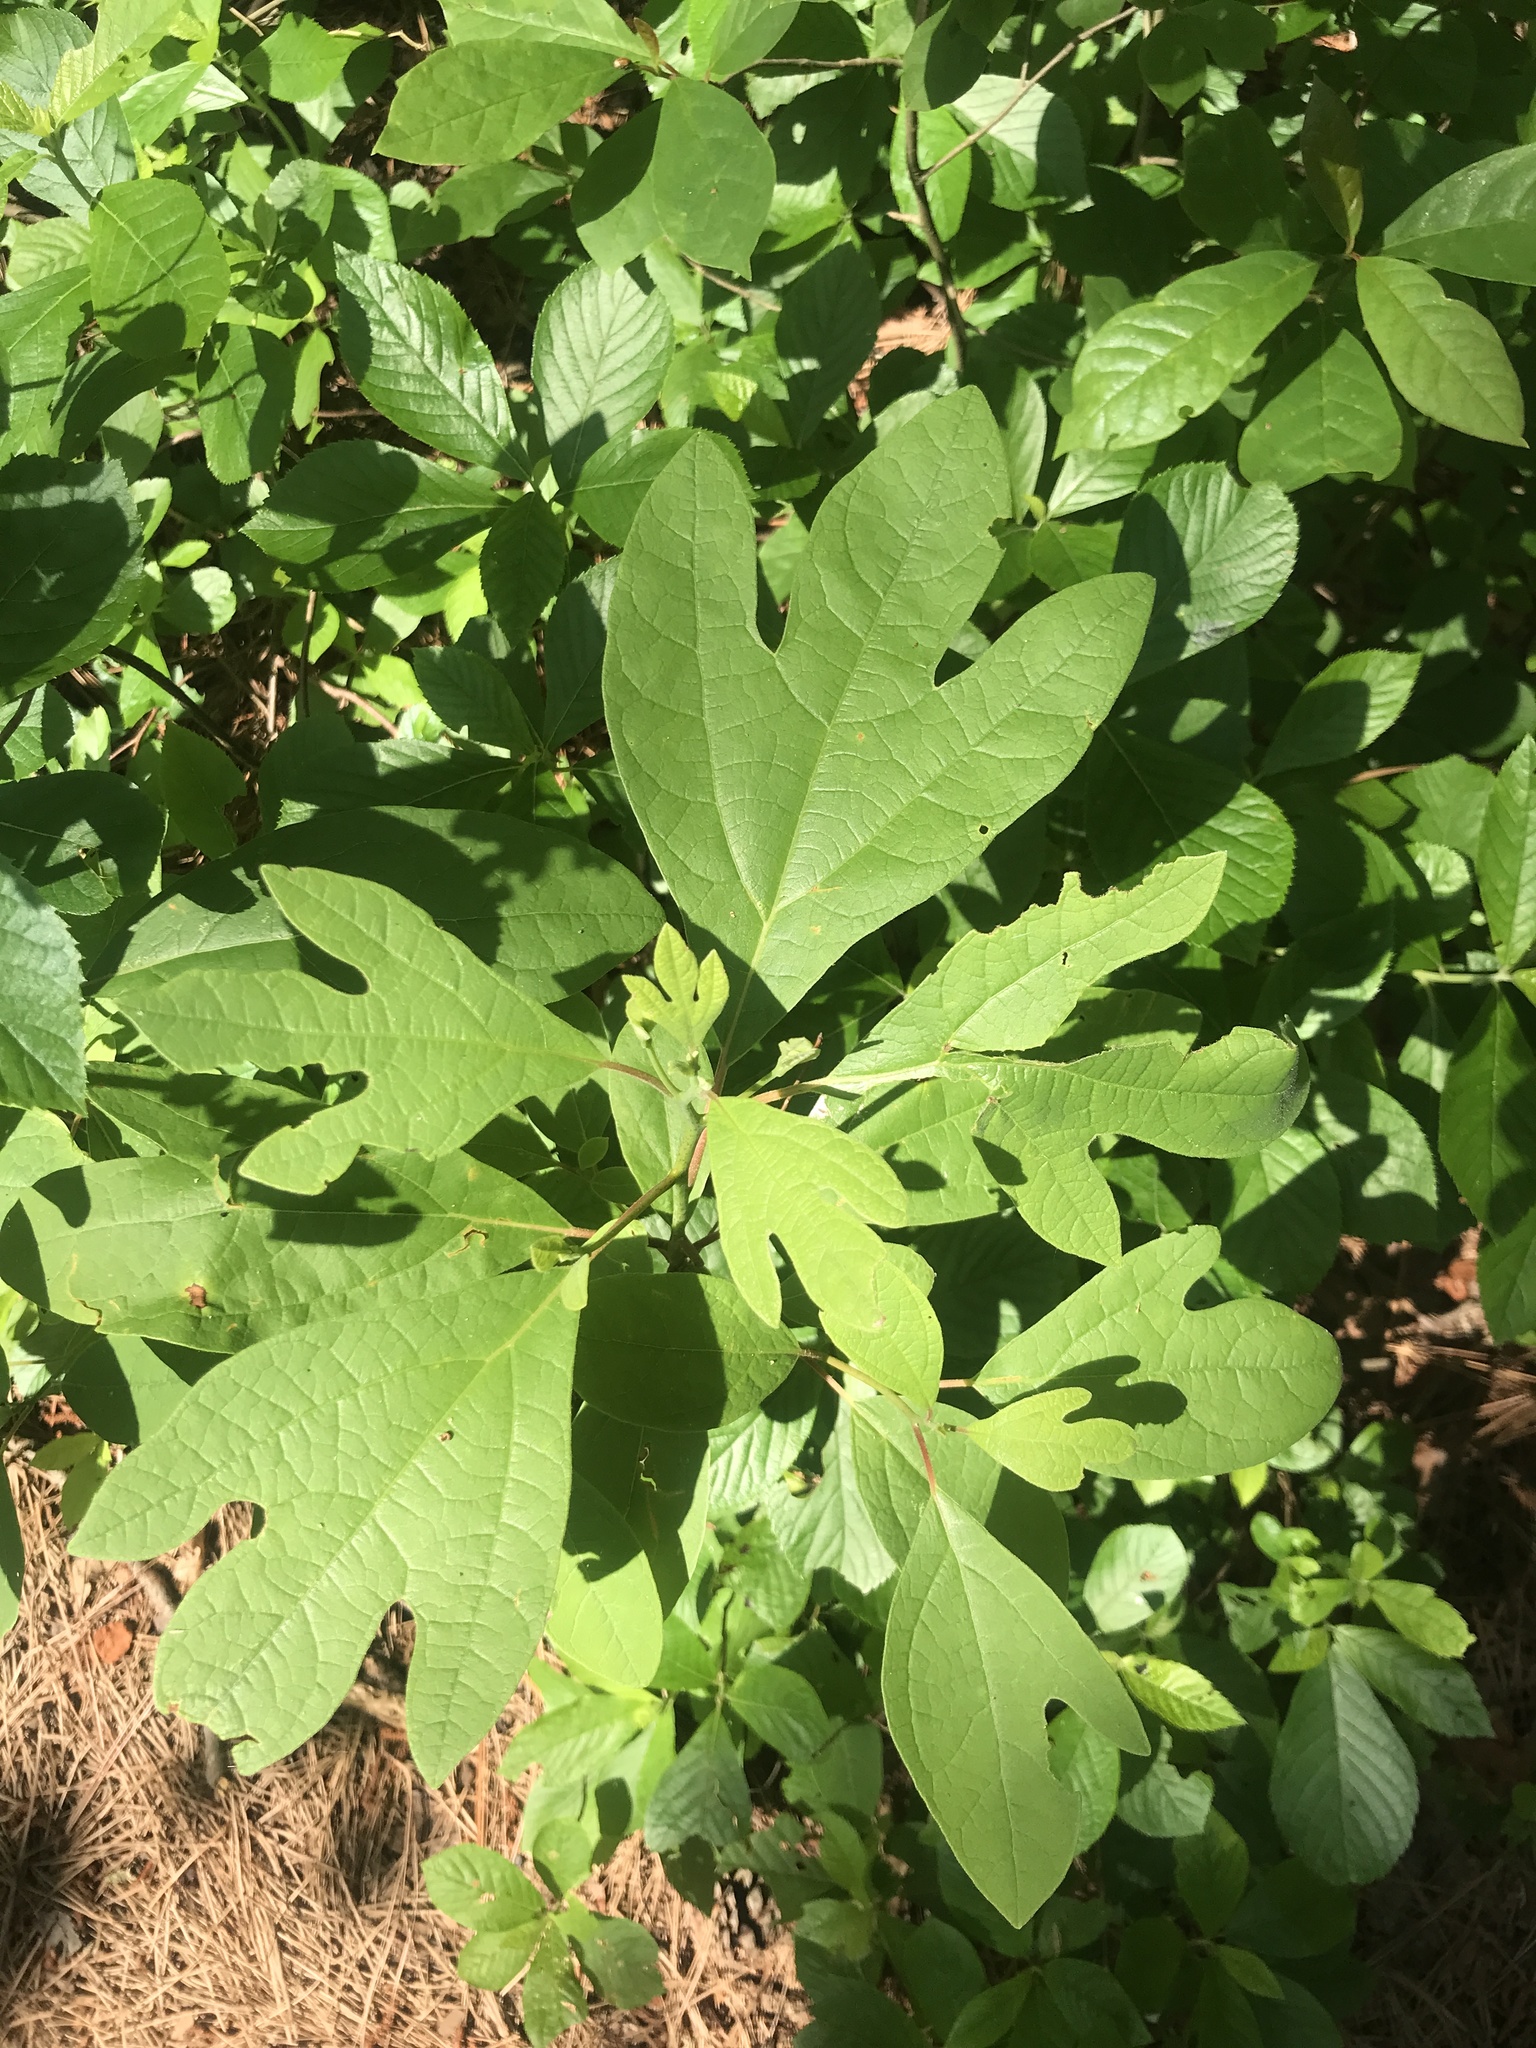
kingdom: Plantae
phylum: Tracheophyta
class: Magnoliopsida
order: Laurales
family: Lauraceae
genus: Sassafras
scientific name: Sassafras albidum
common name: Sassafras
